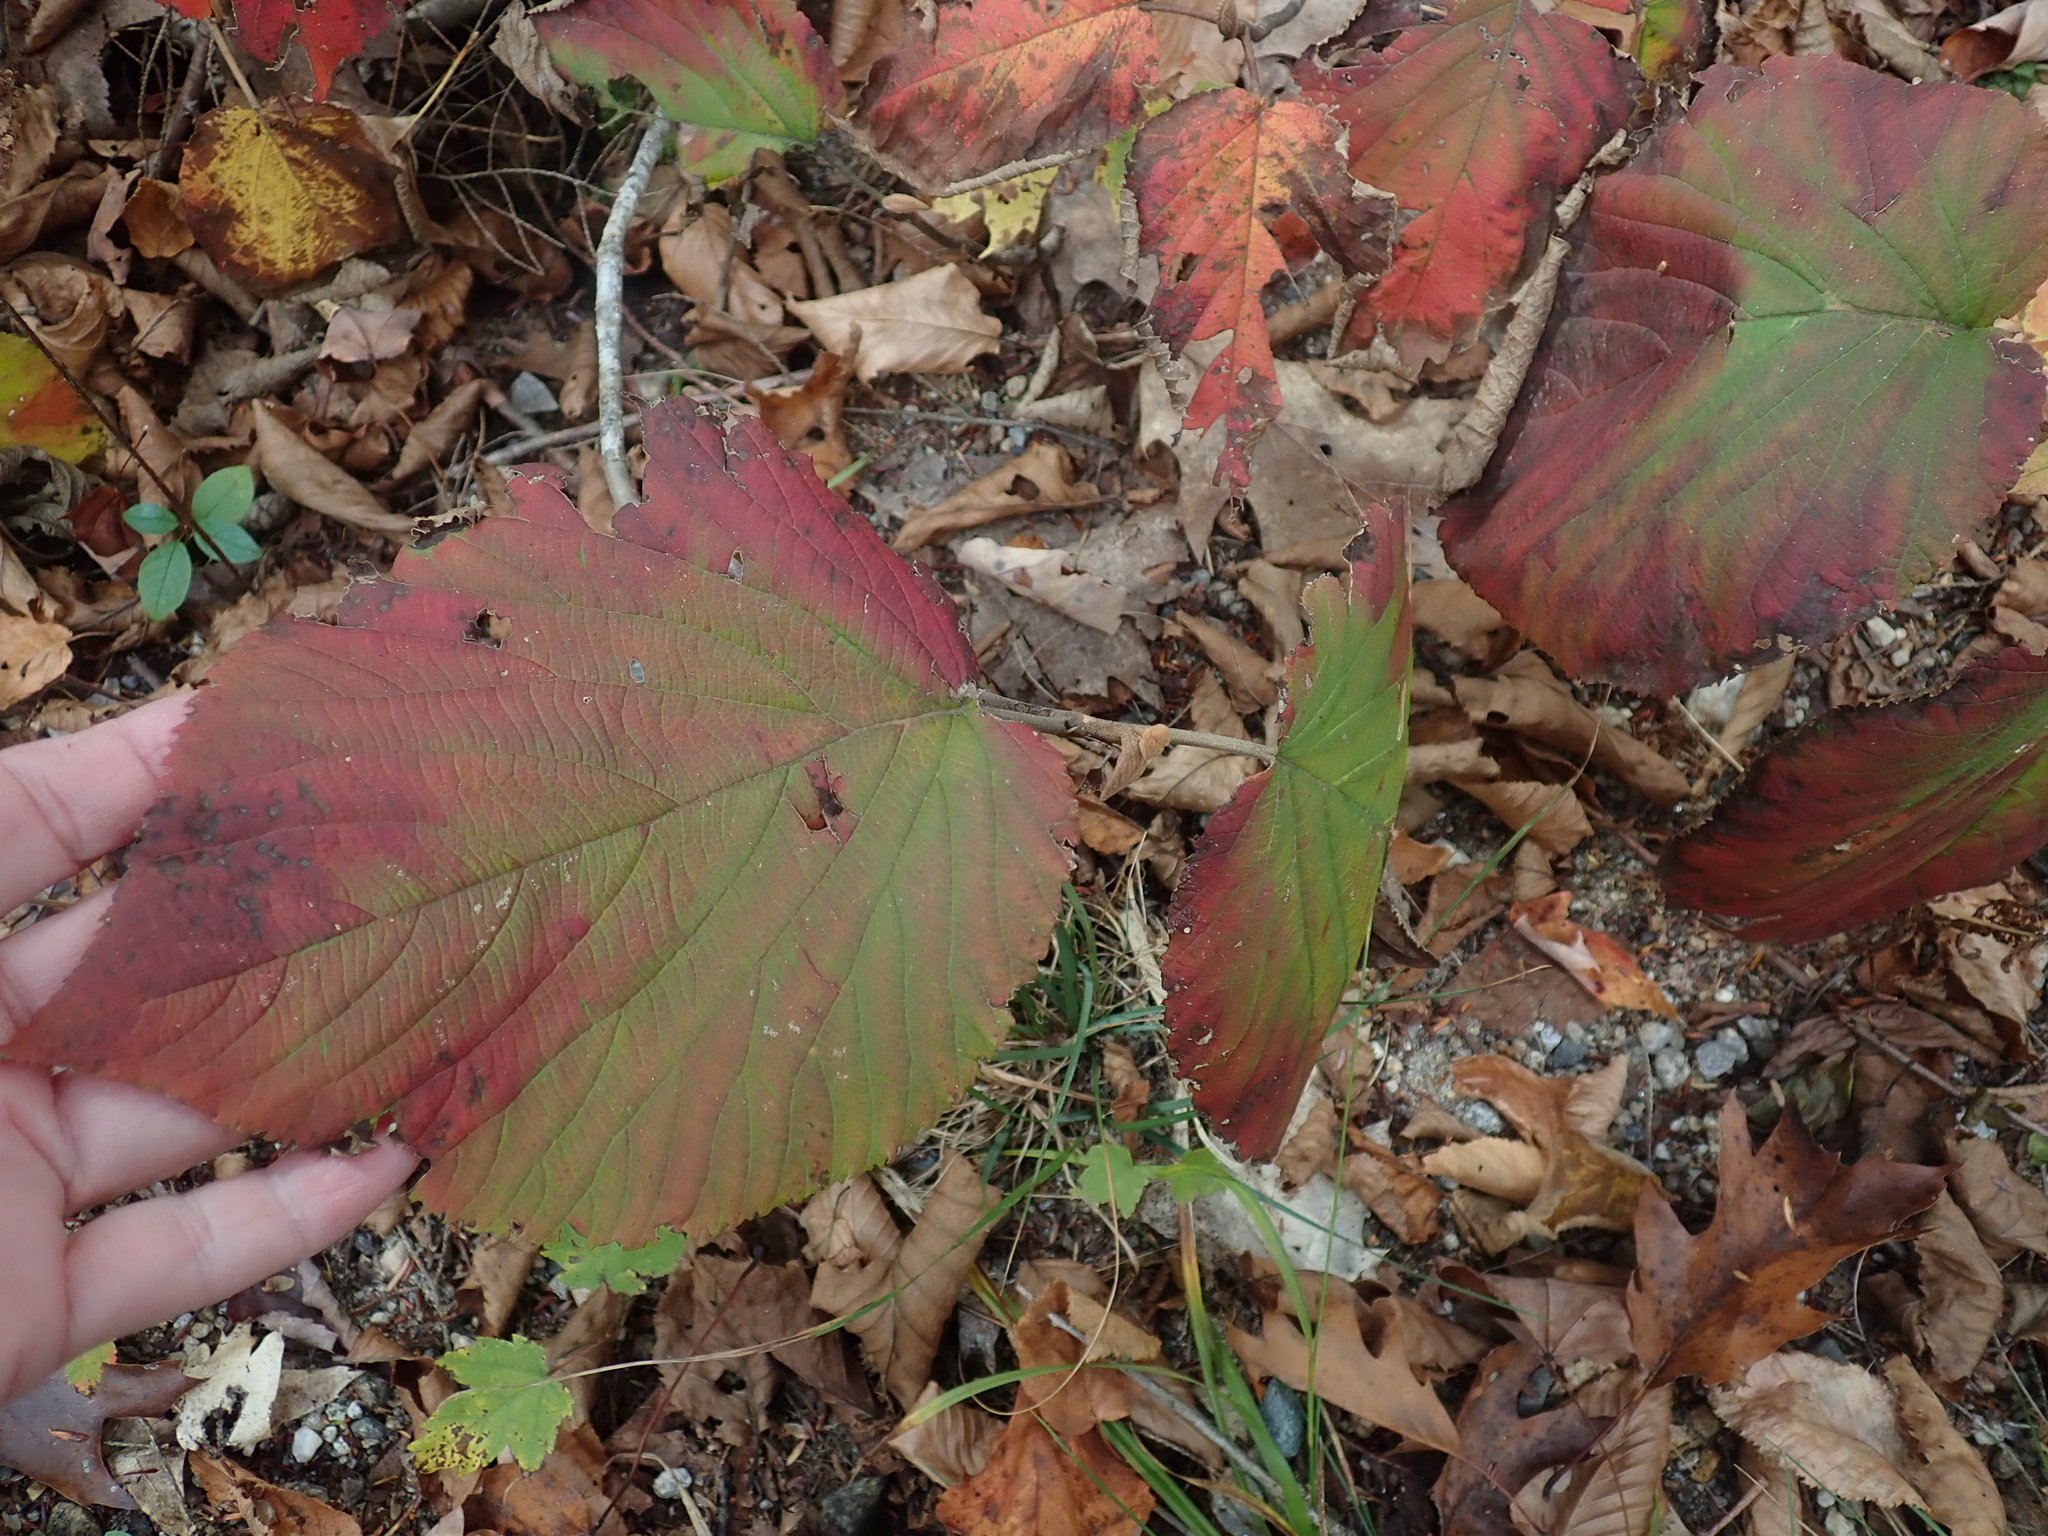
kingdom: Plantae
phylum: Tracheophyta
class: Magnoliopsida
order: Dipsacales
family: Viburnaceae
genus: Viburnum
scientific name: Viburnum lantanoides
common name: Hobblebush
